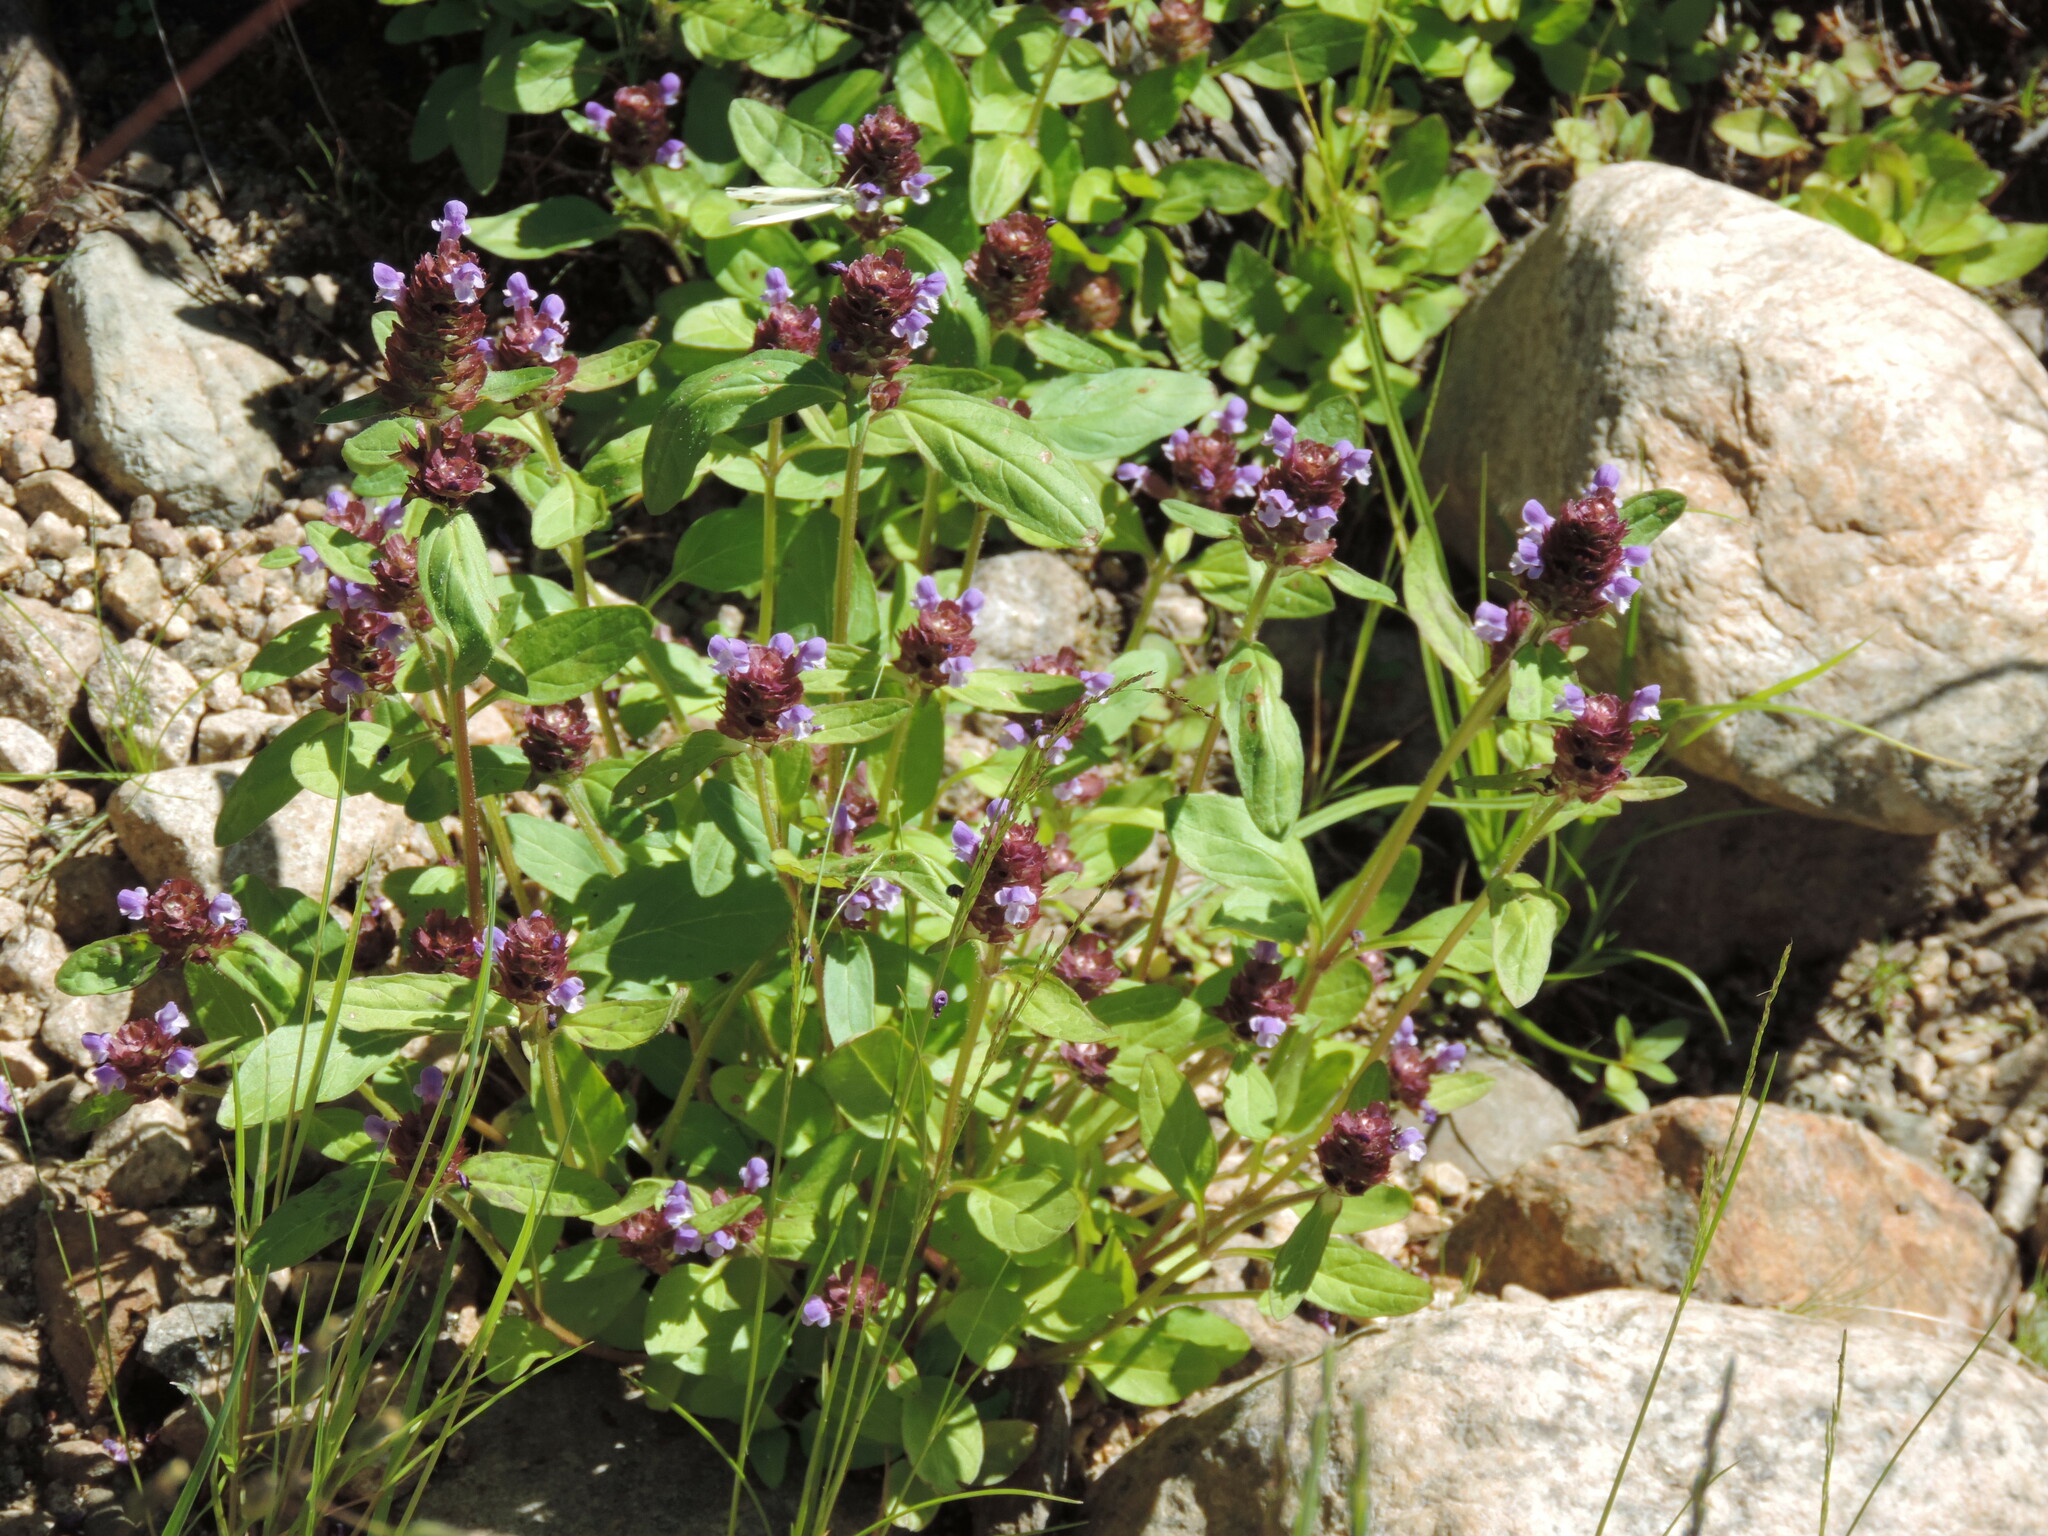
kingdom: Plantae
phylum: Tracheophyta
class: Magnoliopsida
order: Lamiales
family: Lamiaceae
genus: Prunella
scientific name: Prunella vulgaris
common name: Heal-all
